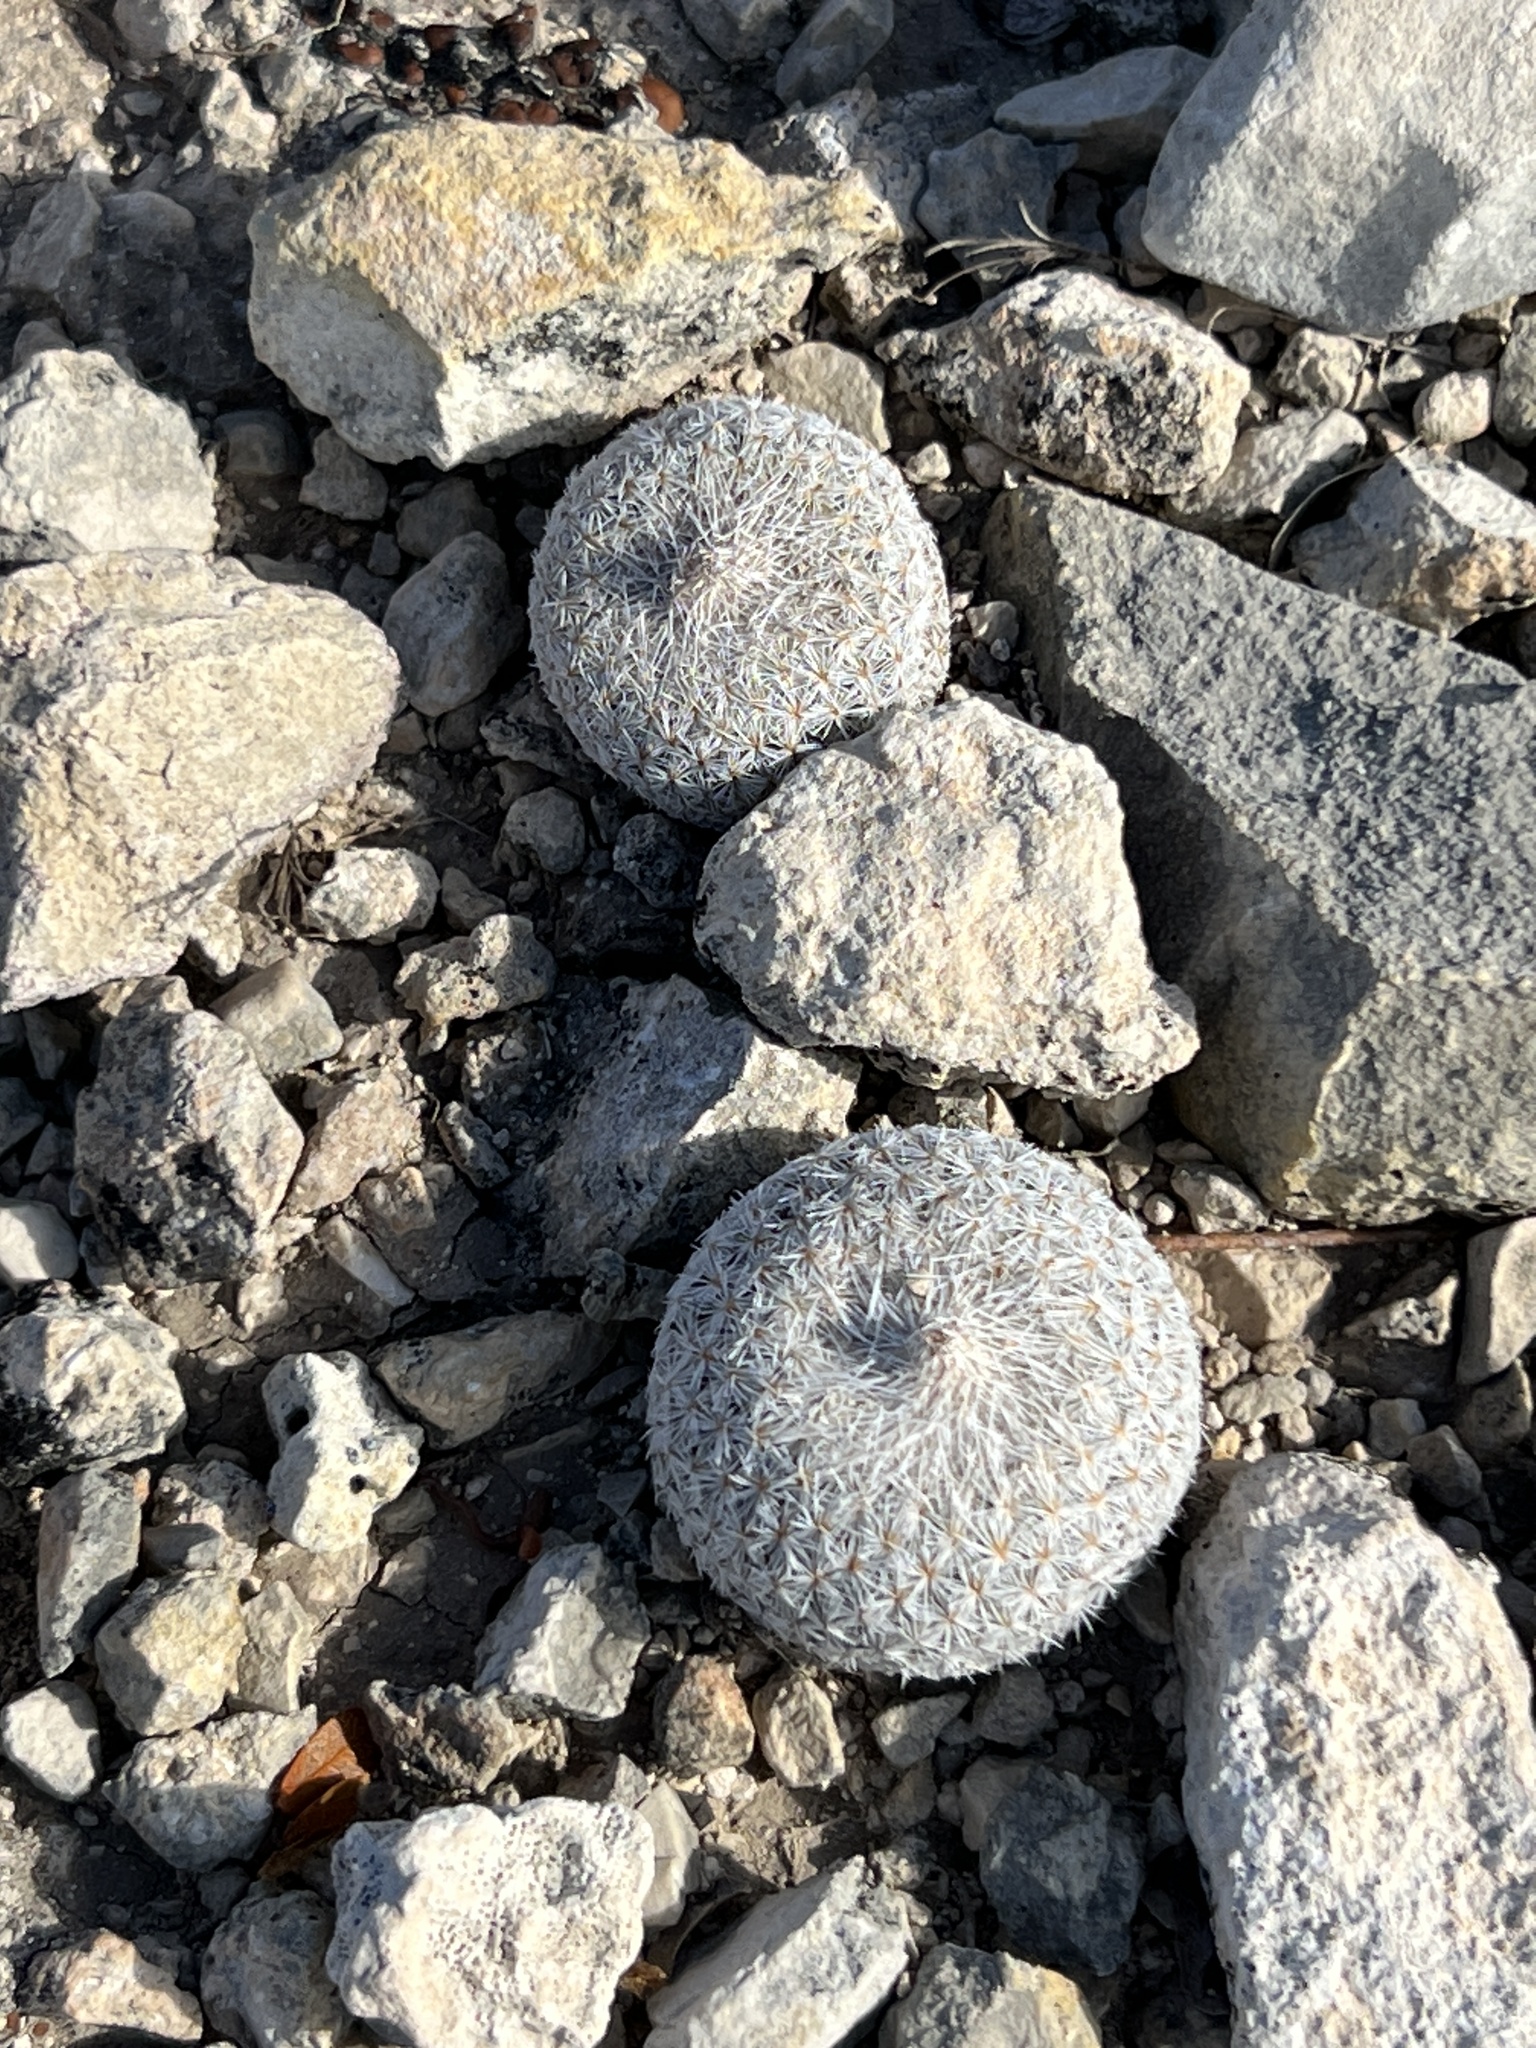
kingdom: Plantae
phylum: Tracheophyta
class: Magnoliopsida
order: Caryophyllales
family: Cactaceae
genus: Epithelantha
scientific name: Epithelantha micromeris
